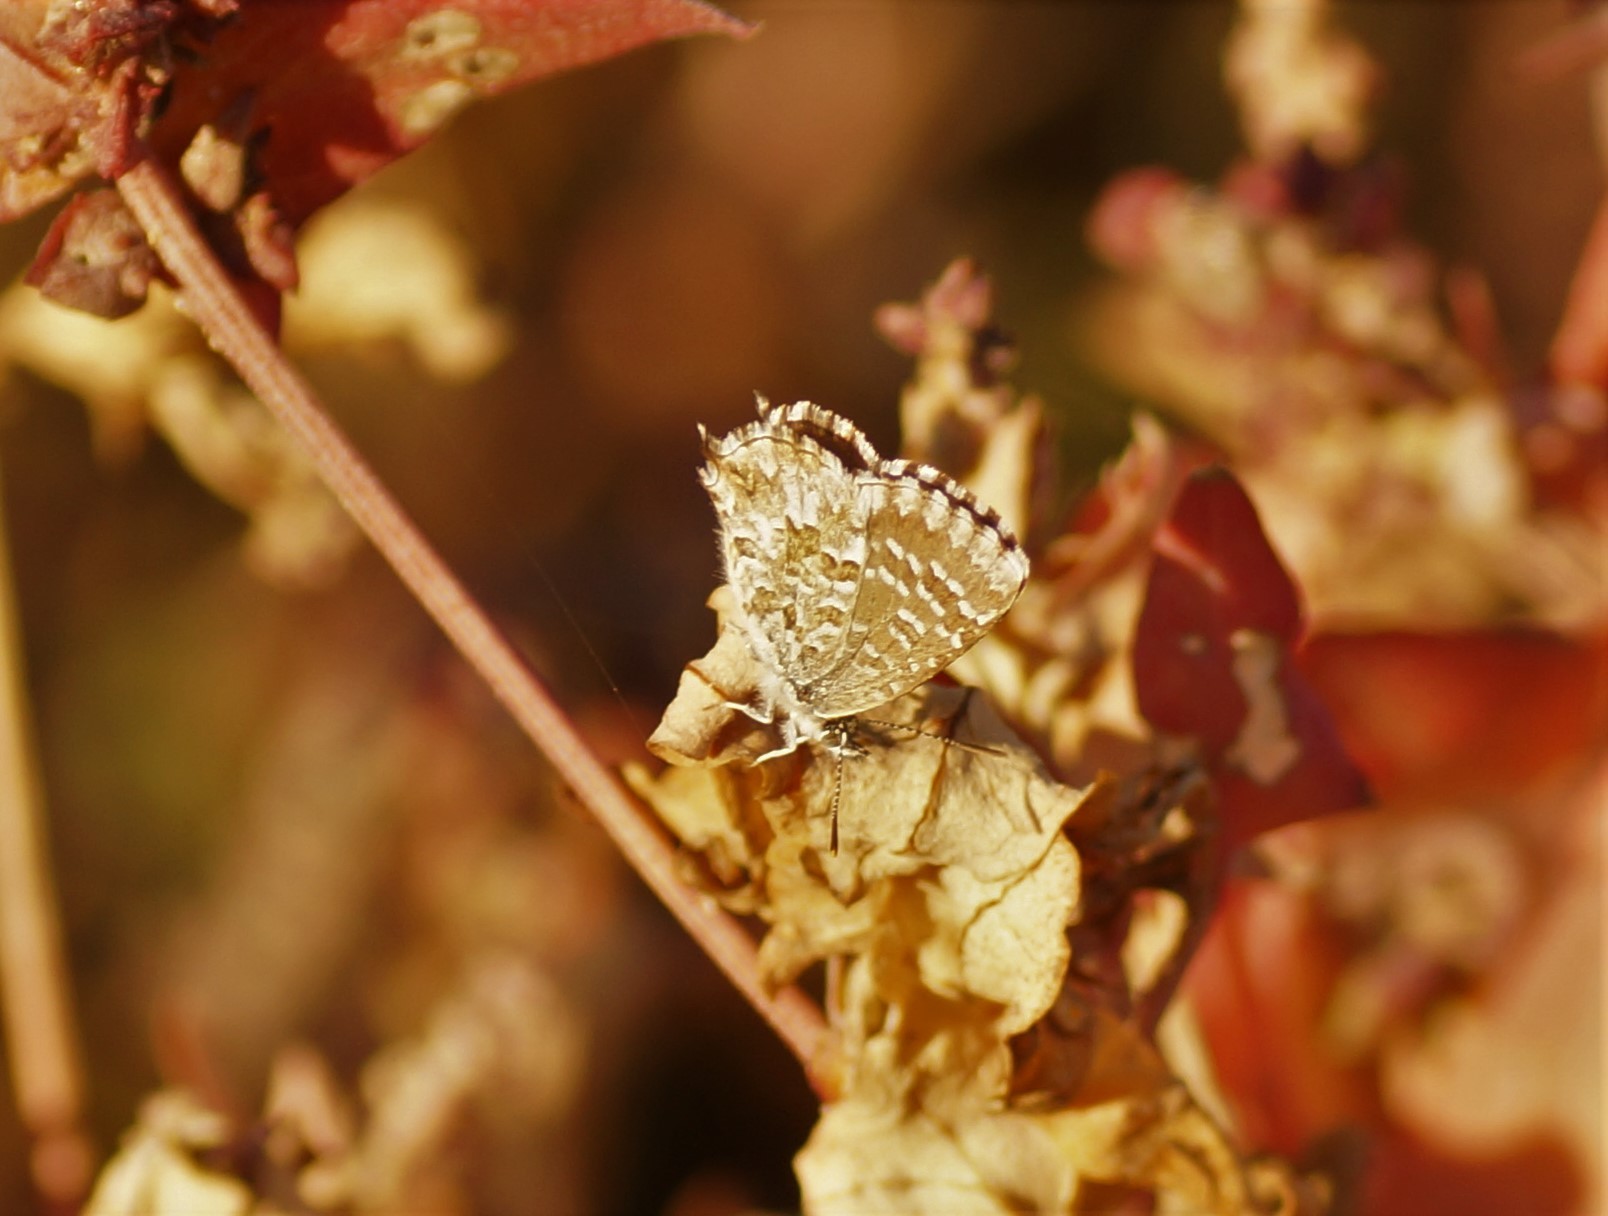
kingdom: Animalia
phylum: Arthropoda
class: Insecta
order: Lepidoptera
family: Lycaenidae
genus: Theclinesthes
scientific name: Theclinesthes serpentata
